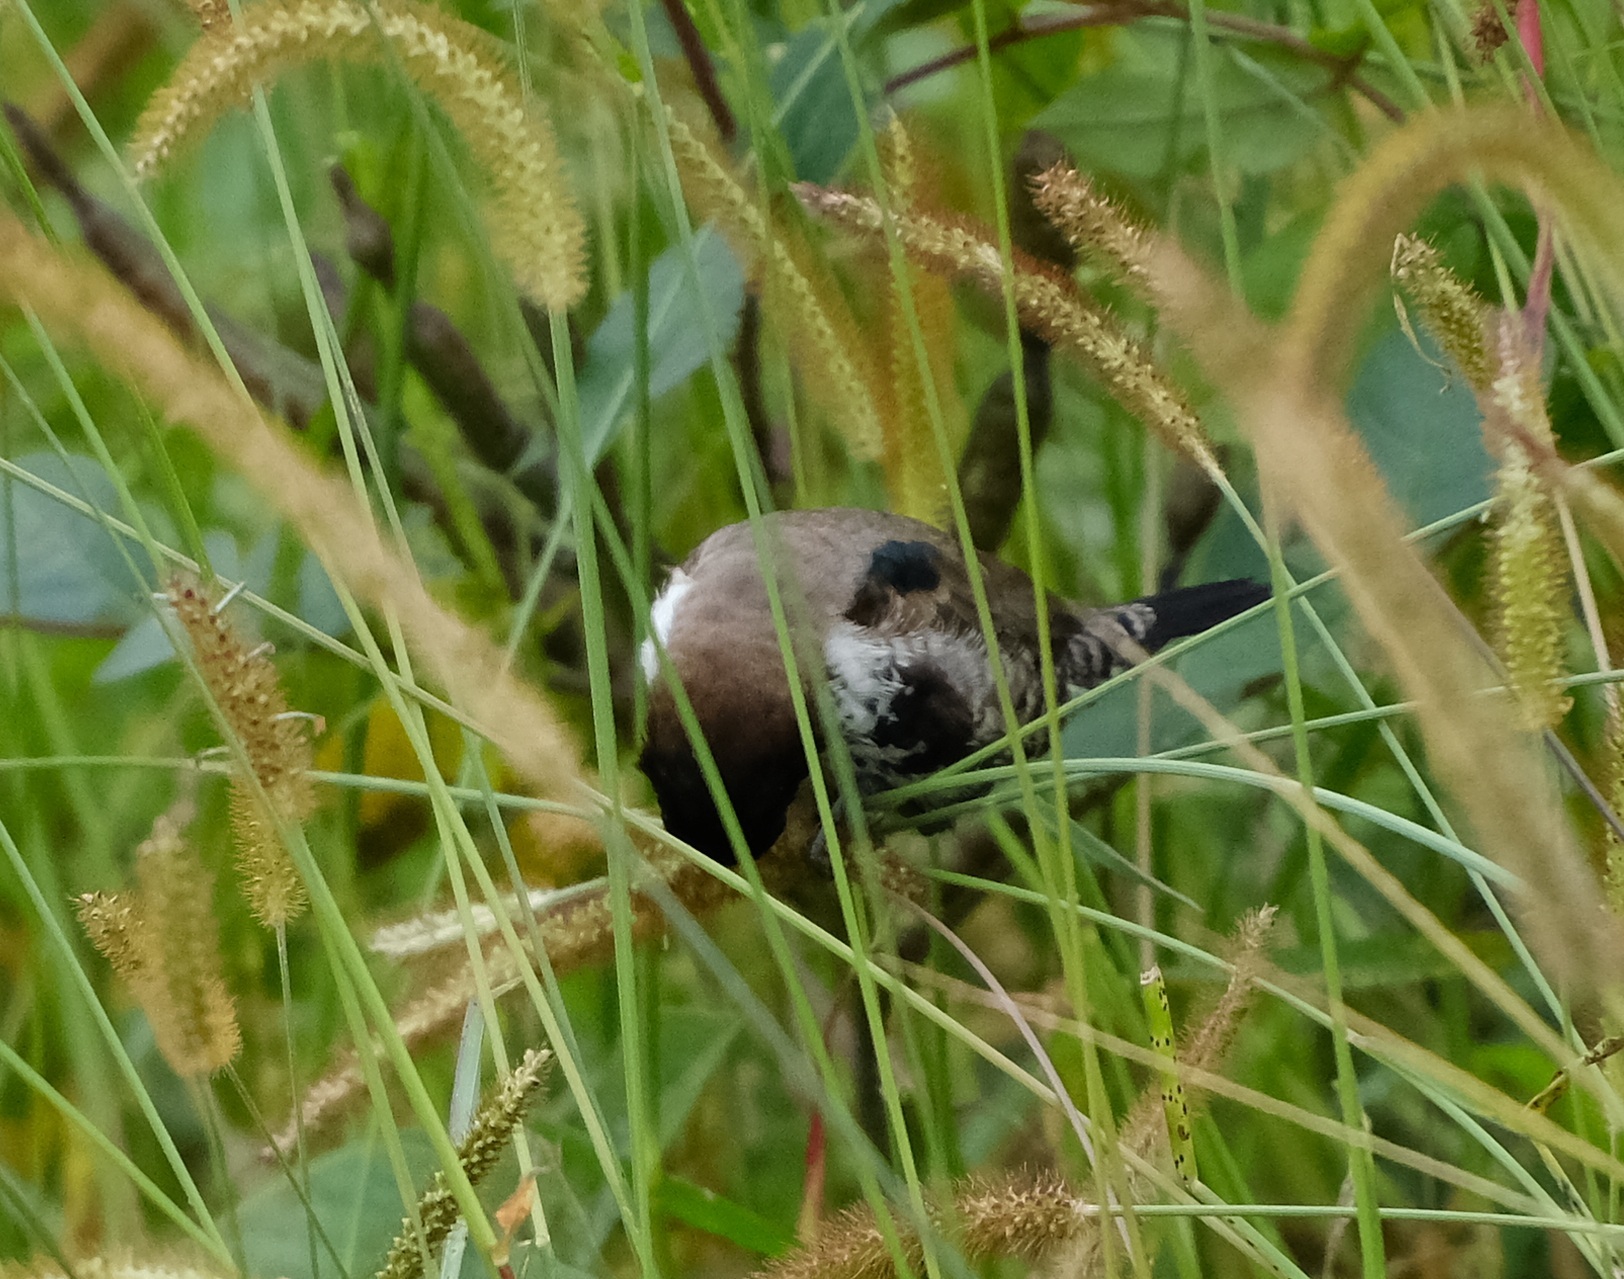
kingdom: Animalia
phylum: Chordata
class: Aves
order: Passeriformes
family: Estrildidae
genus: Lonchura
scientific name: Lonchura cucullata
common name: Bronze mannikin
